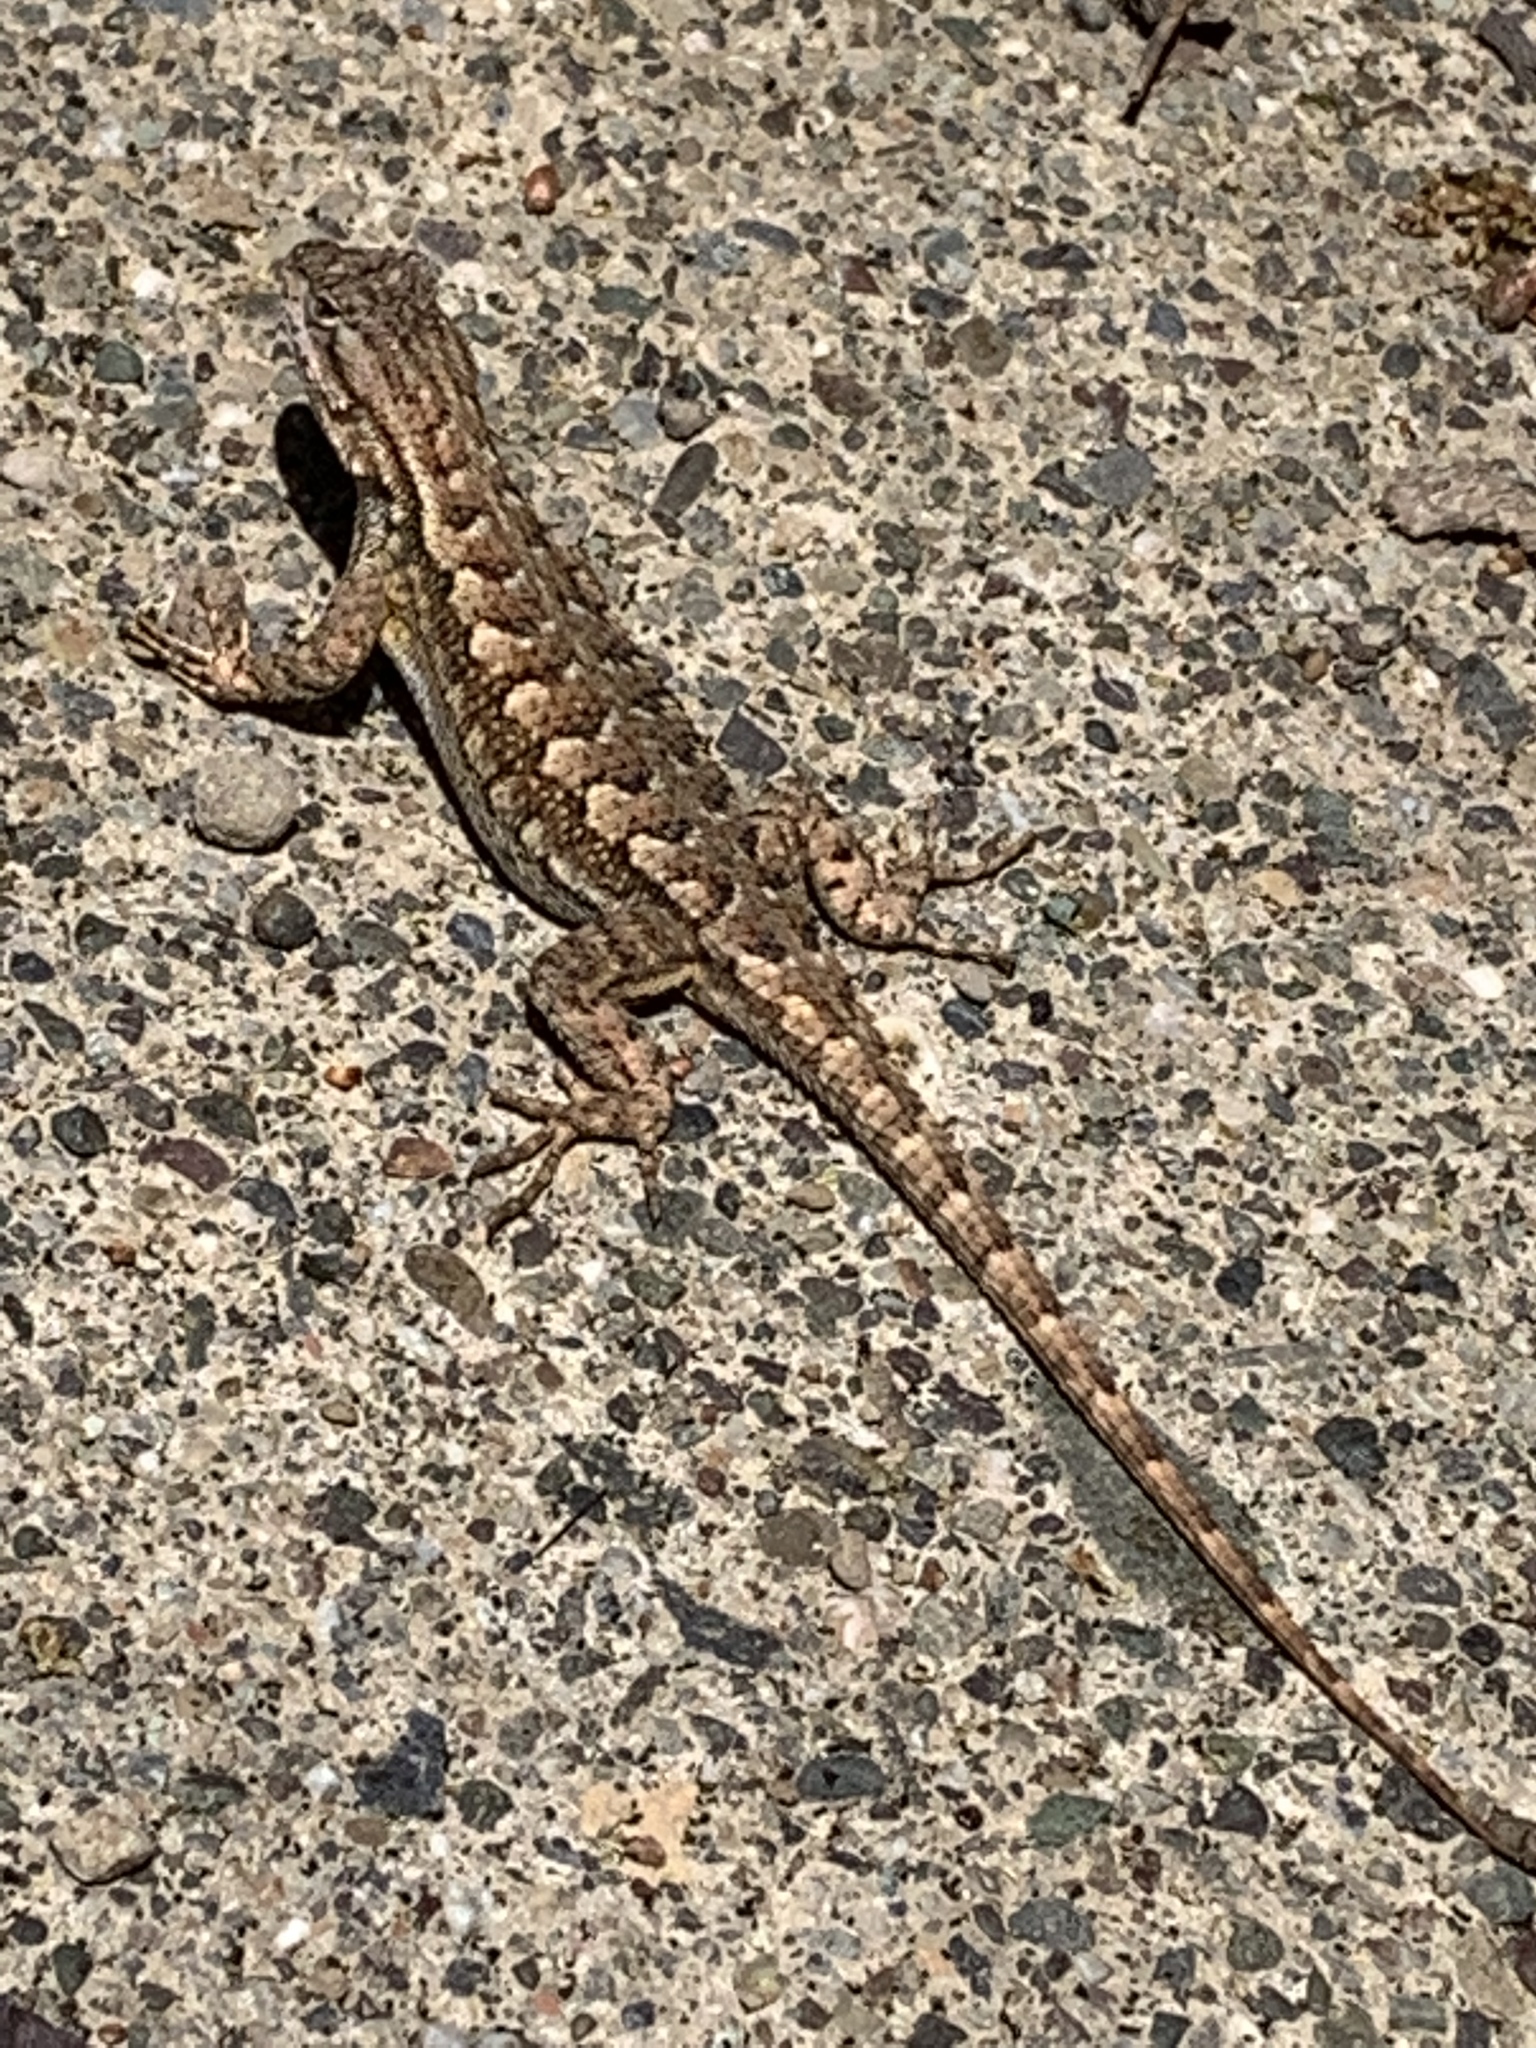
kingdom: Animalia
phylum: Chordata
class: Squamata
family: Phrynosomatidae
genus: Sceloporus
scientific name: Sceloporus occidentalis
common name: Western fence lizard
